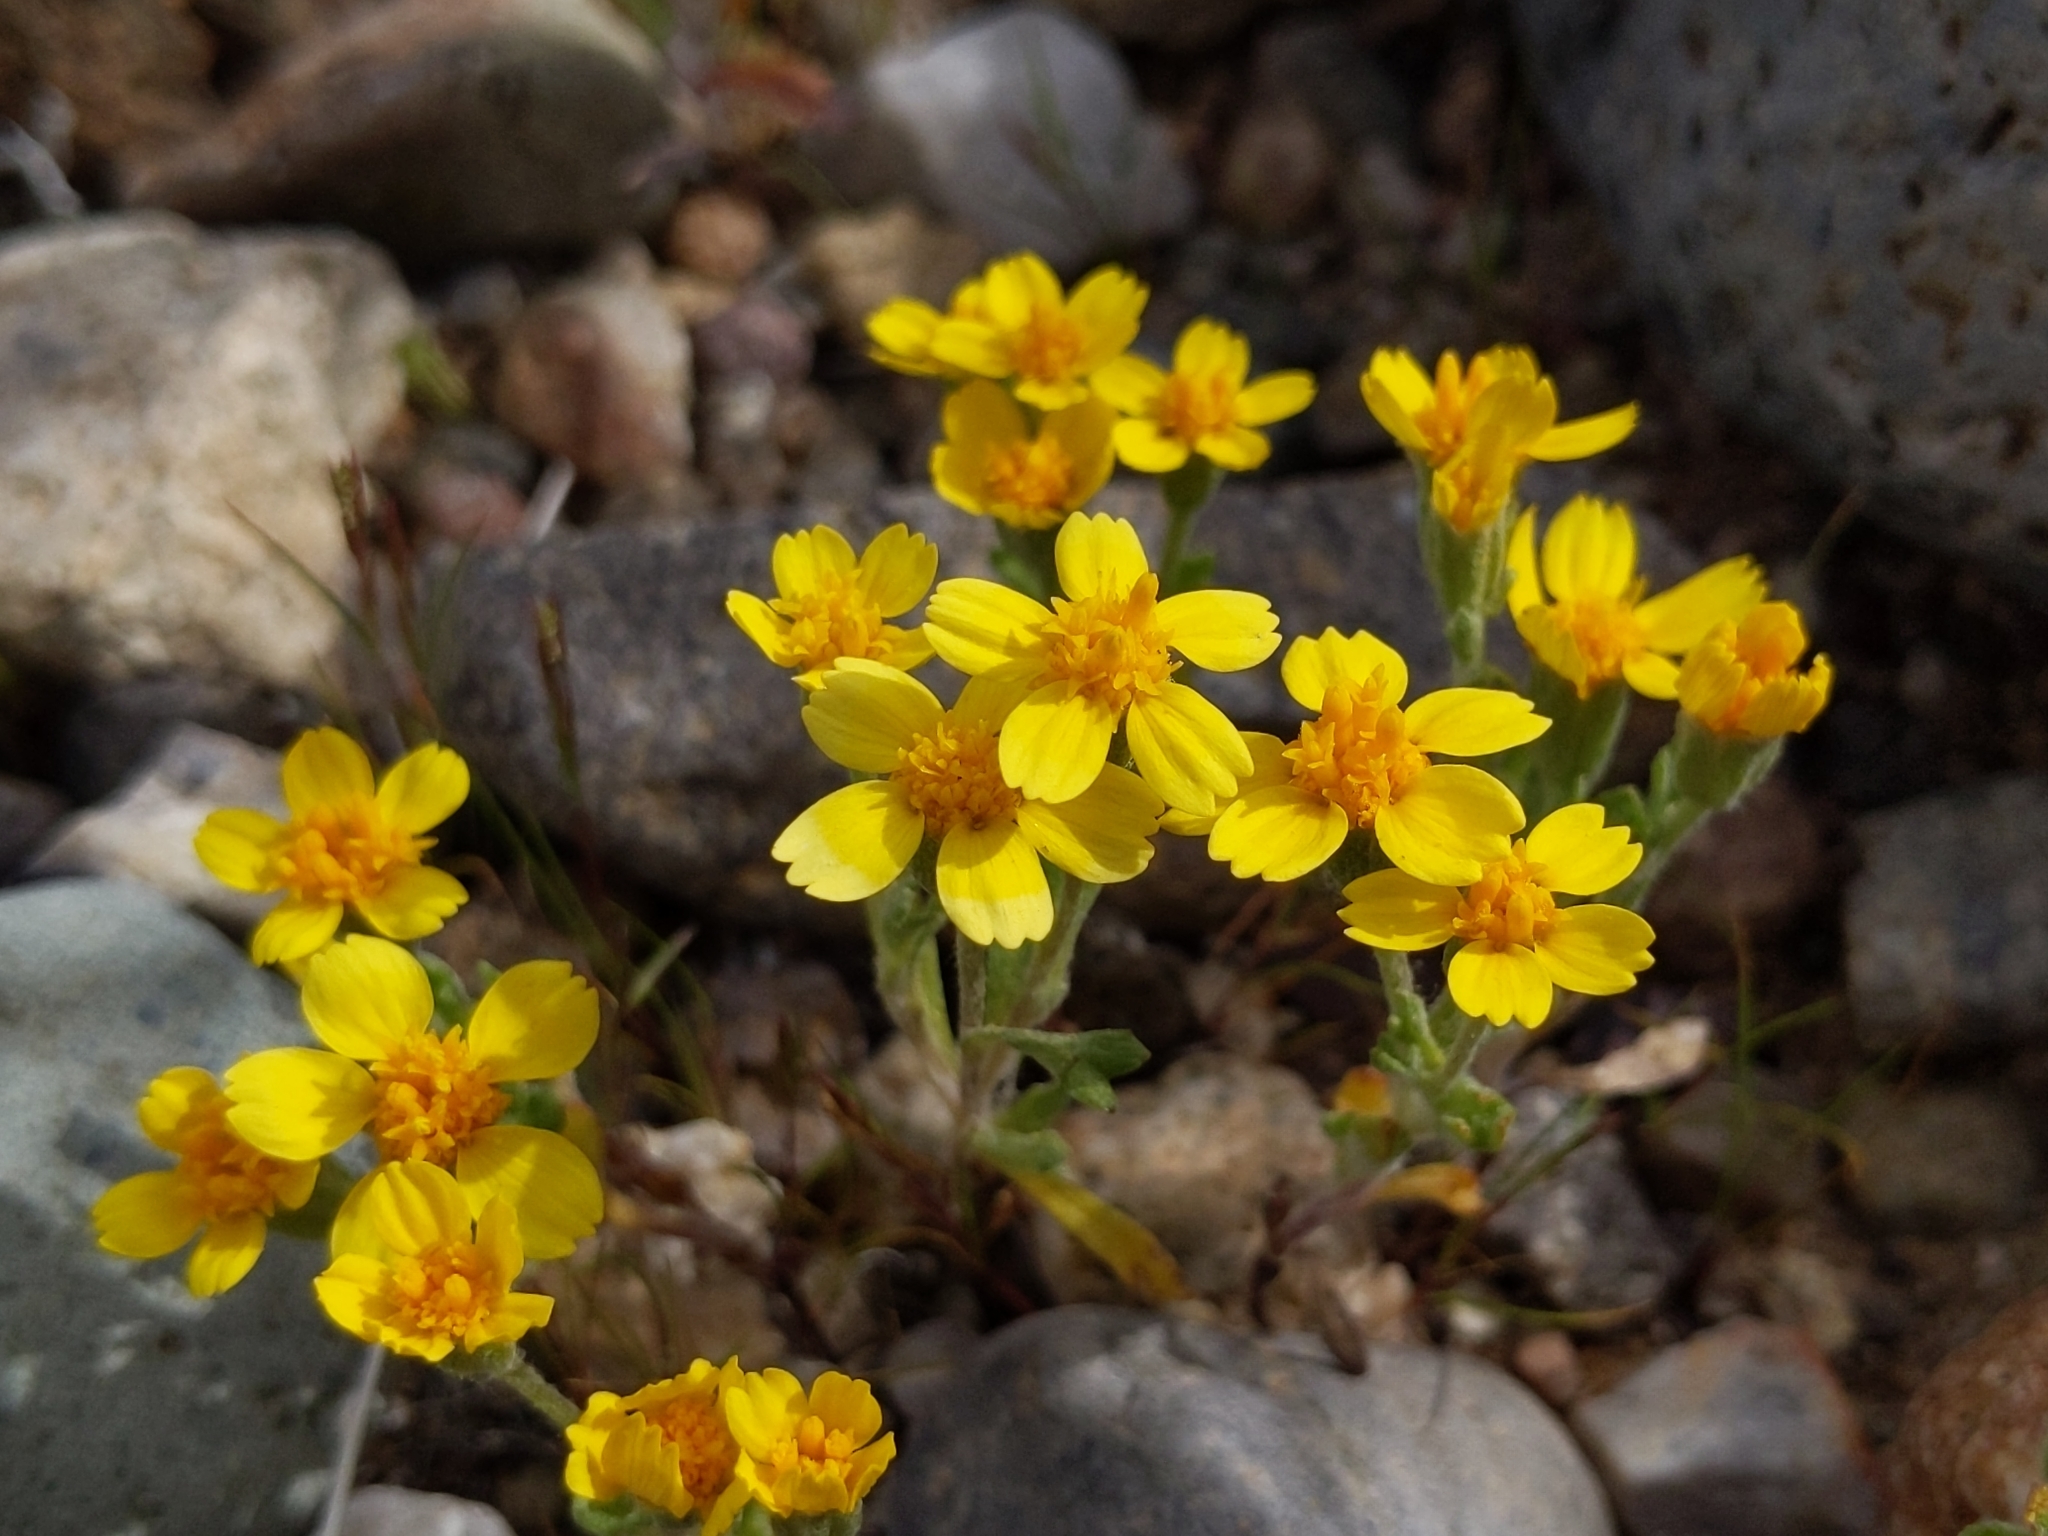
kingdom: Plantae
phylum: Tracheophyta
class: Magnoliopsida
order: Asterales
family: Asteraceae
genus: Syntrichopappus
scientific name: Syntrichopappus fremontii
